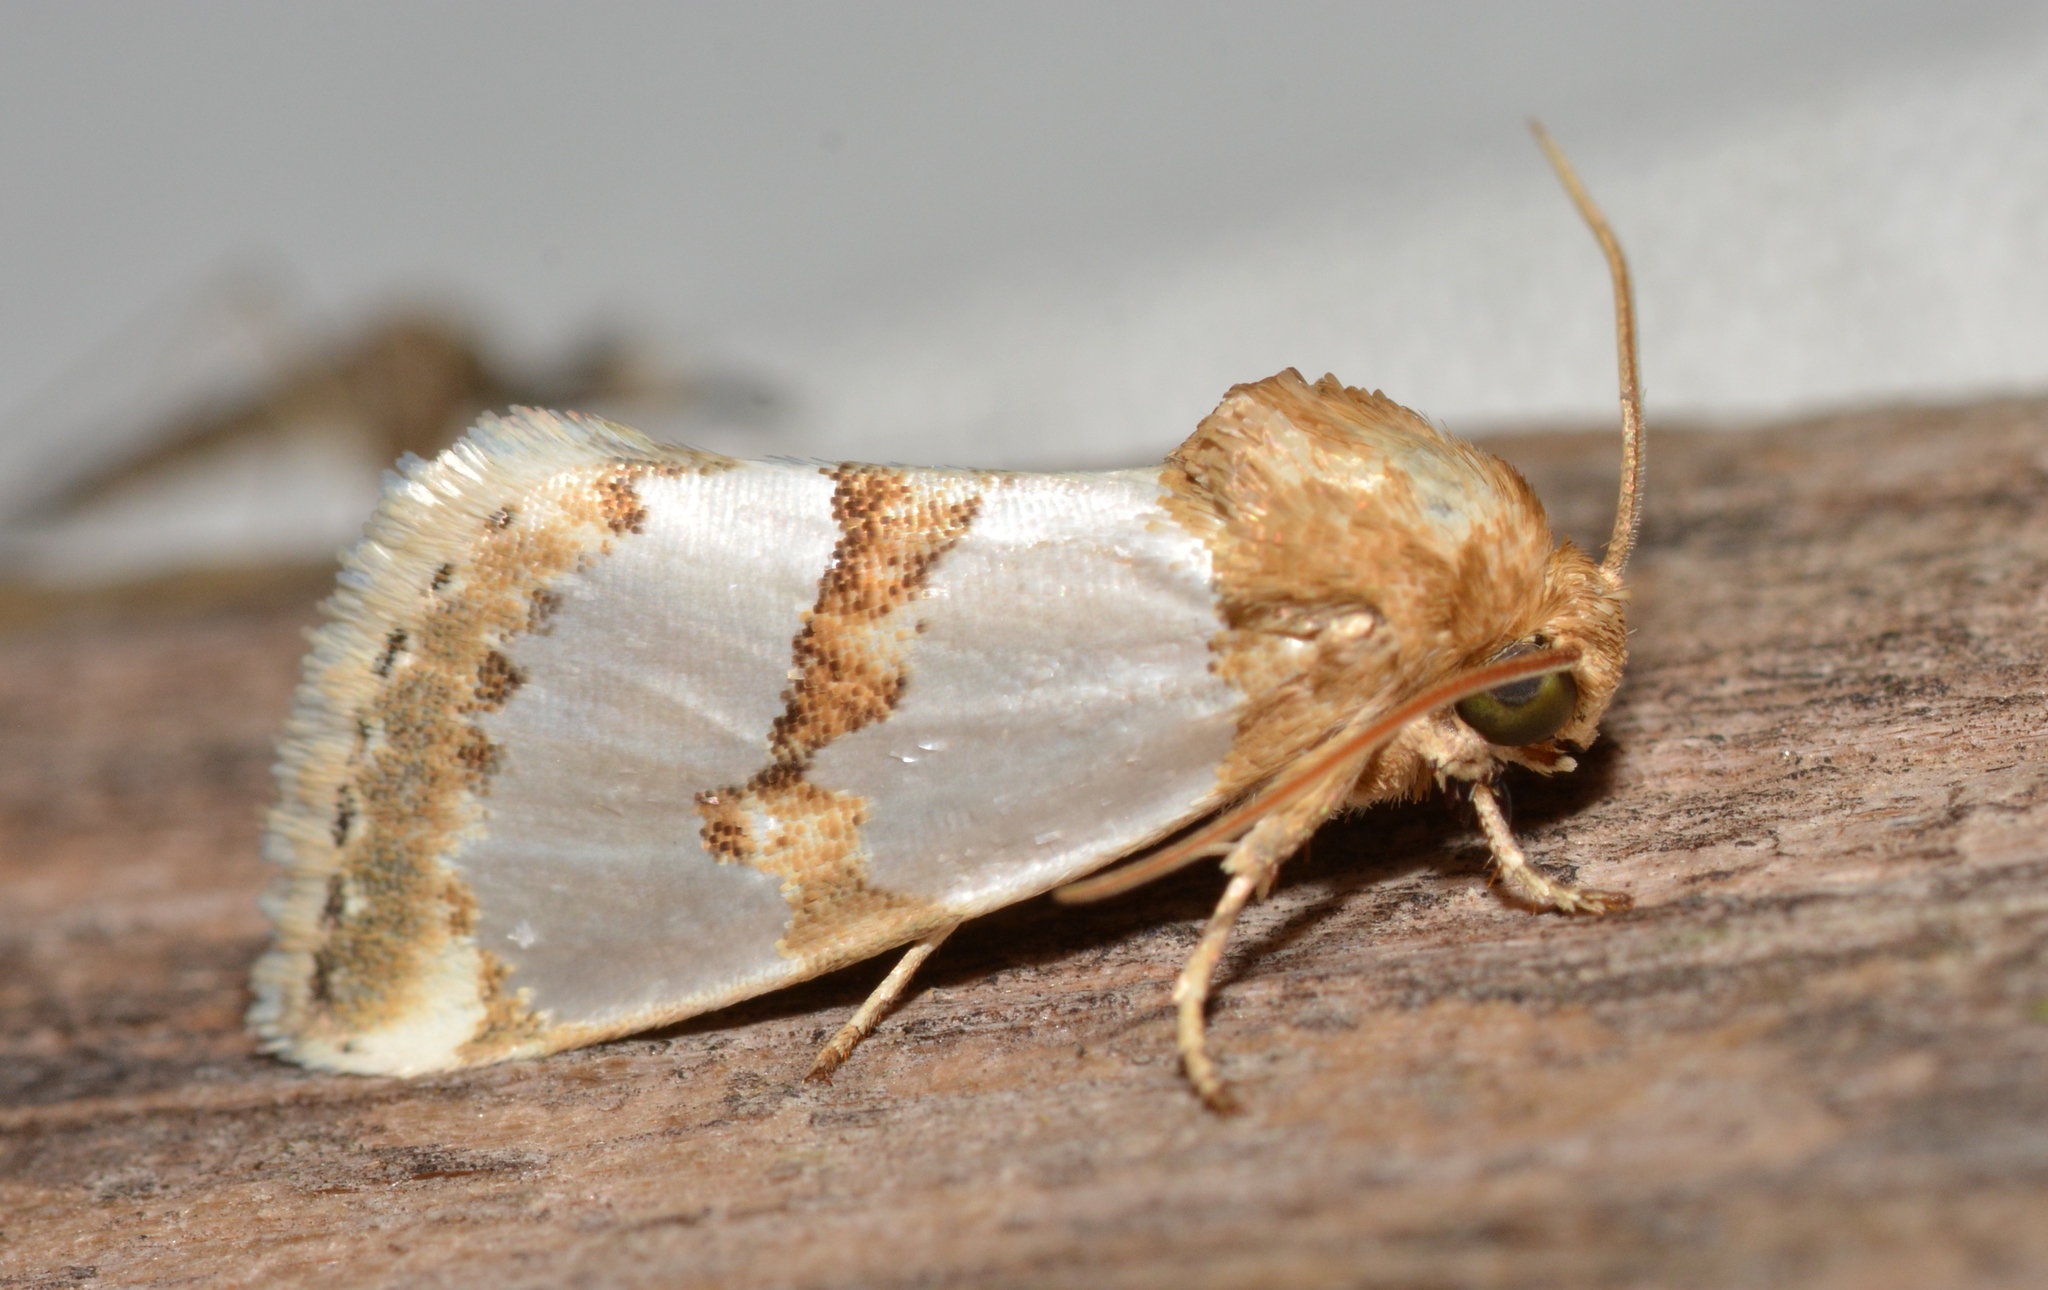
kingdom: Animalia
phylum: Arthropoda
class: Insecta
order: Lepidoptera
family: Noctuidae
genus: Schinia
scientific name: Schinia chrysellus
